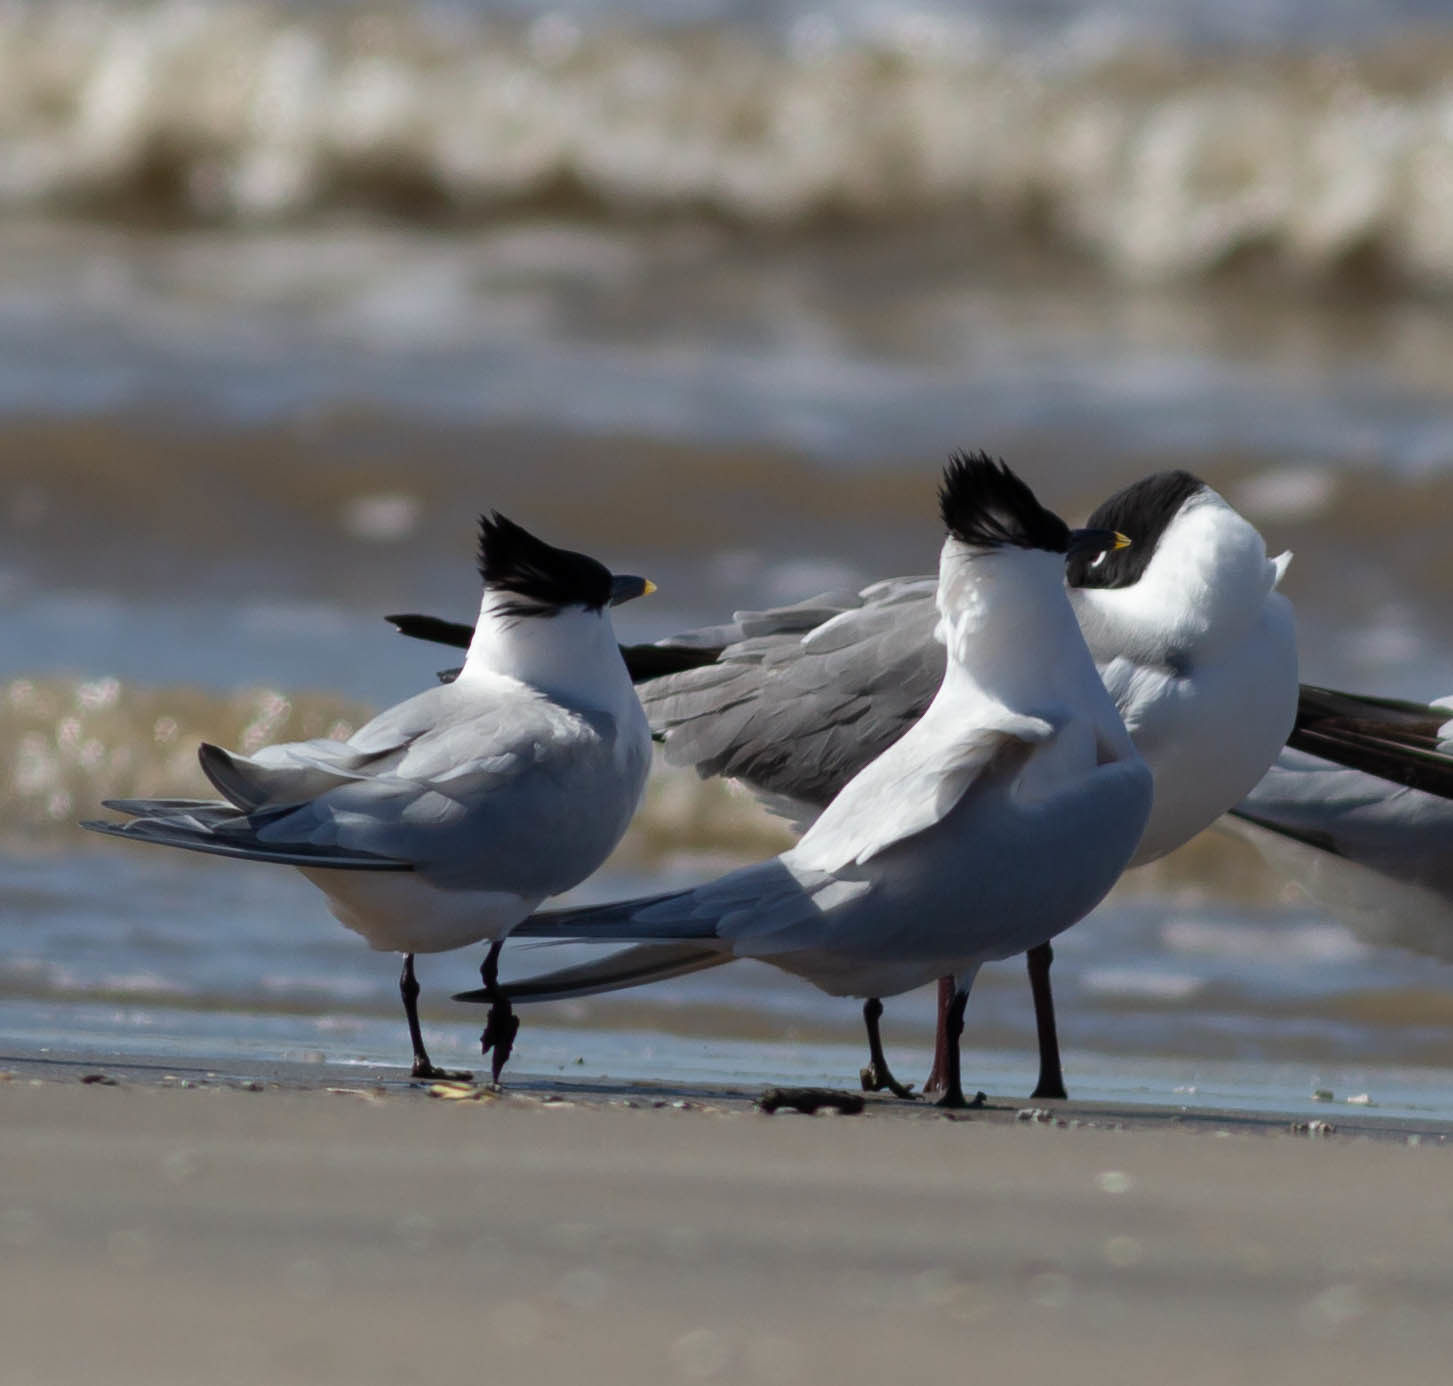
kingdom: Animalia
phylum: Chordata
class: Aves
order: Charadriiformes
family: Laridae
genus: Thalasseus
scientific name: Thalasseus sandvicensis
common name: Sandwich tern
